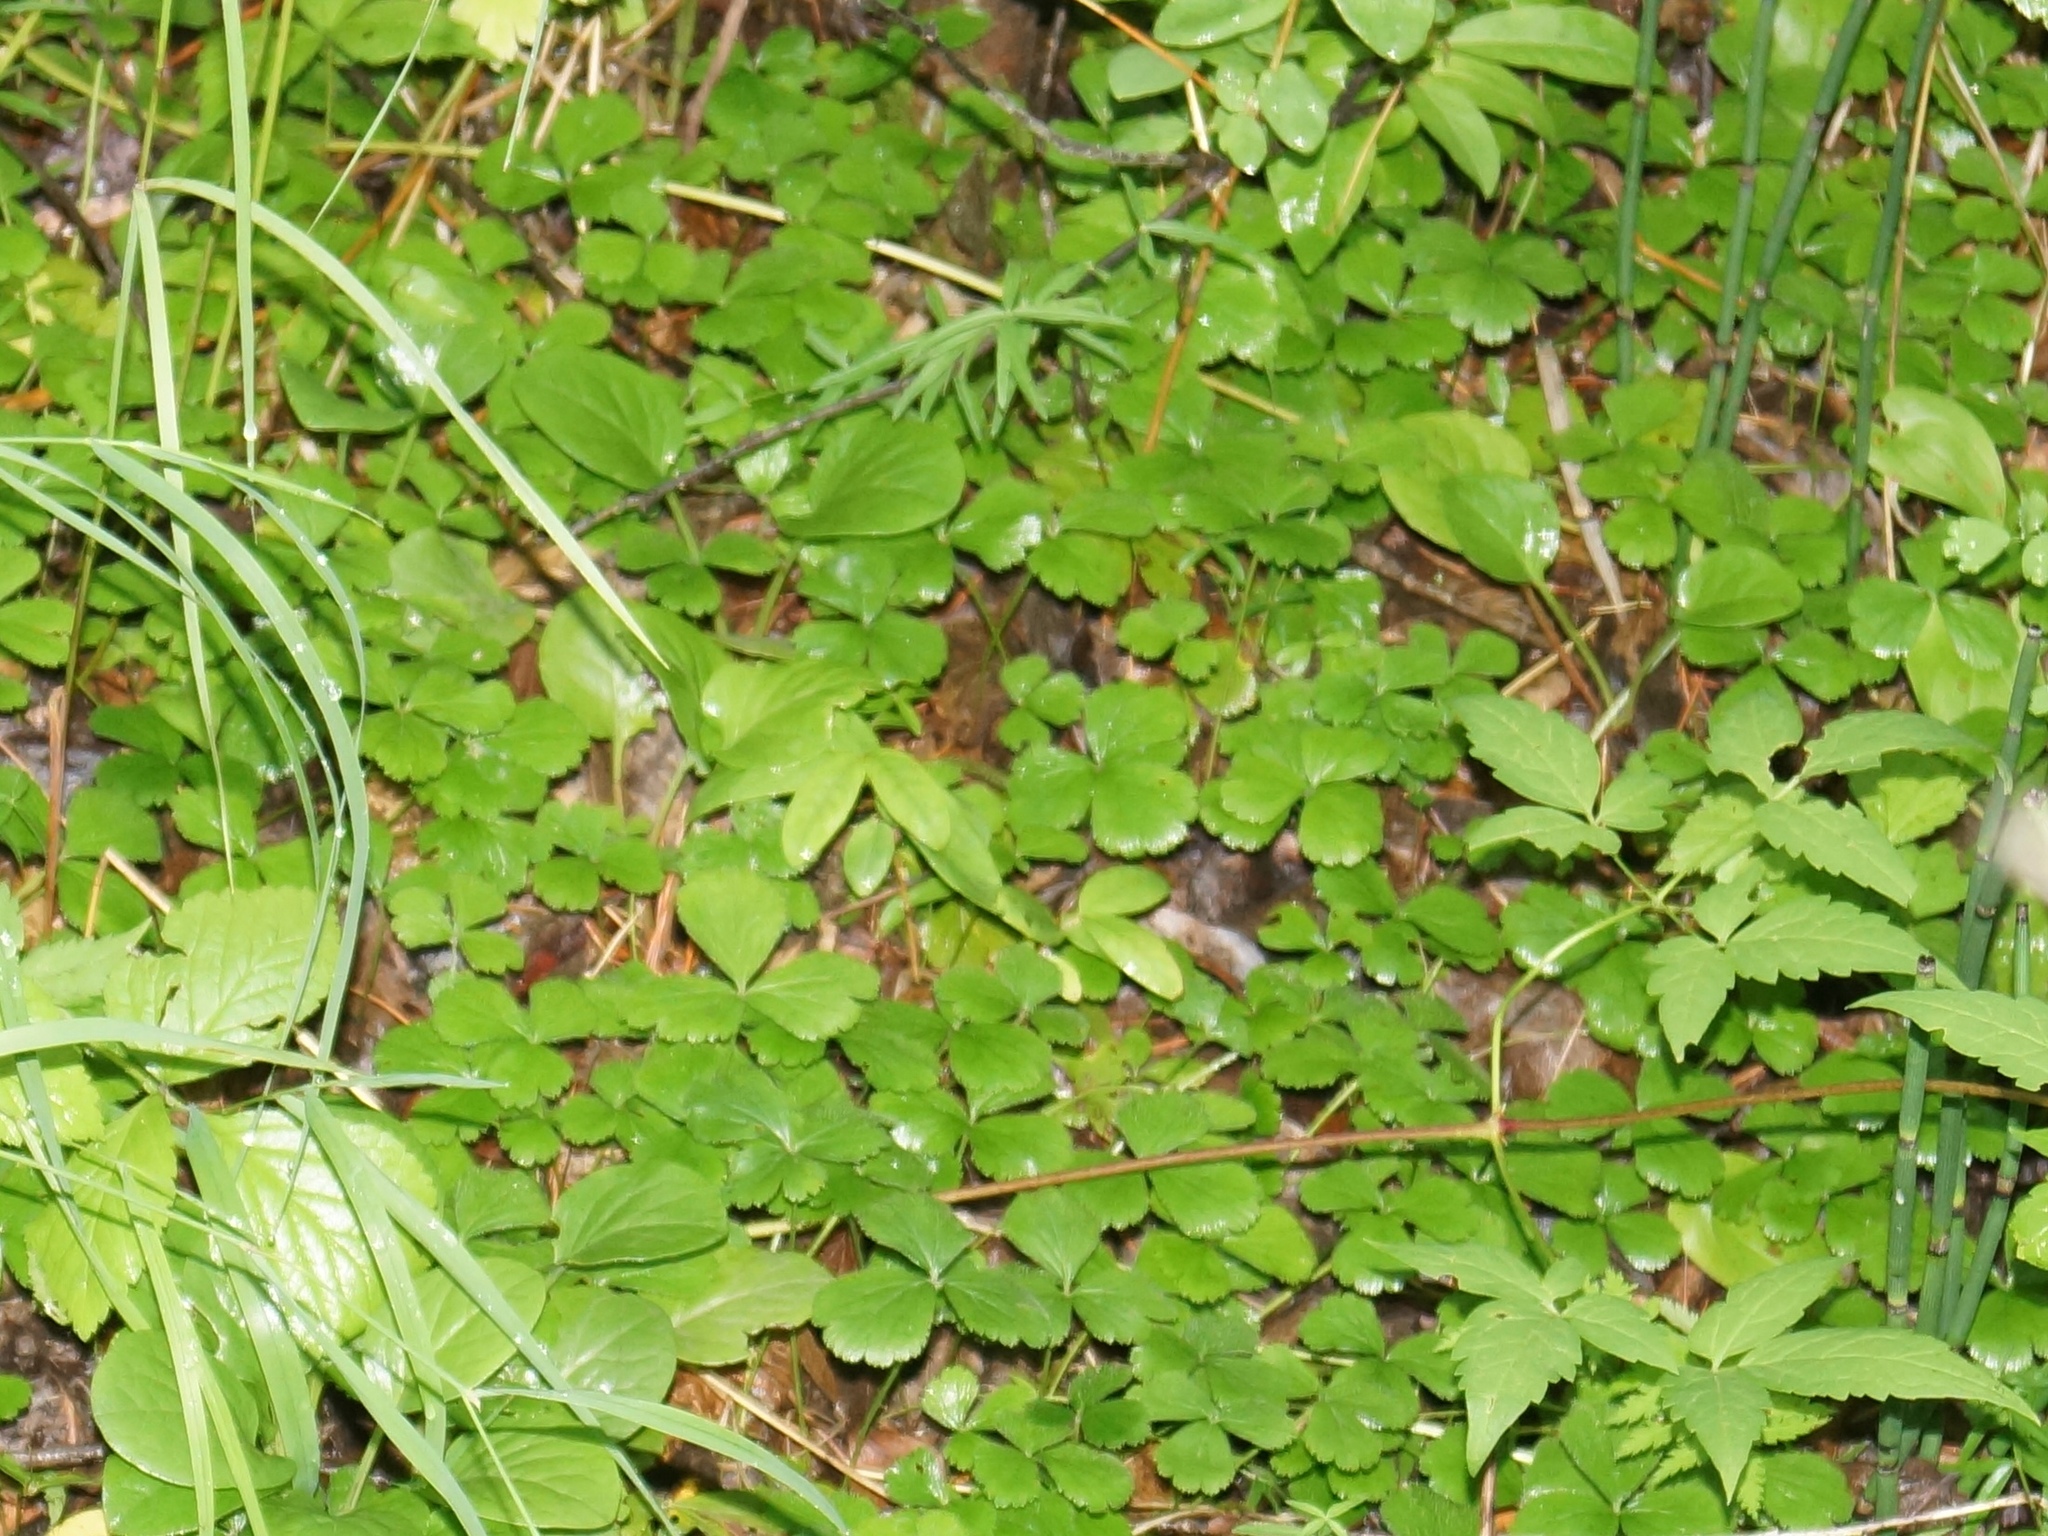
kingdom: Plantae
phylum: Tracheophyta
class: Magnoliopsida
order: Rosales
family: Rosaceae
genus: Geum
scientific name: Geum ternatum
